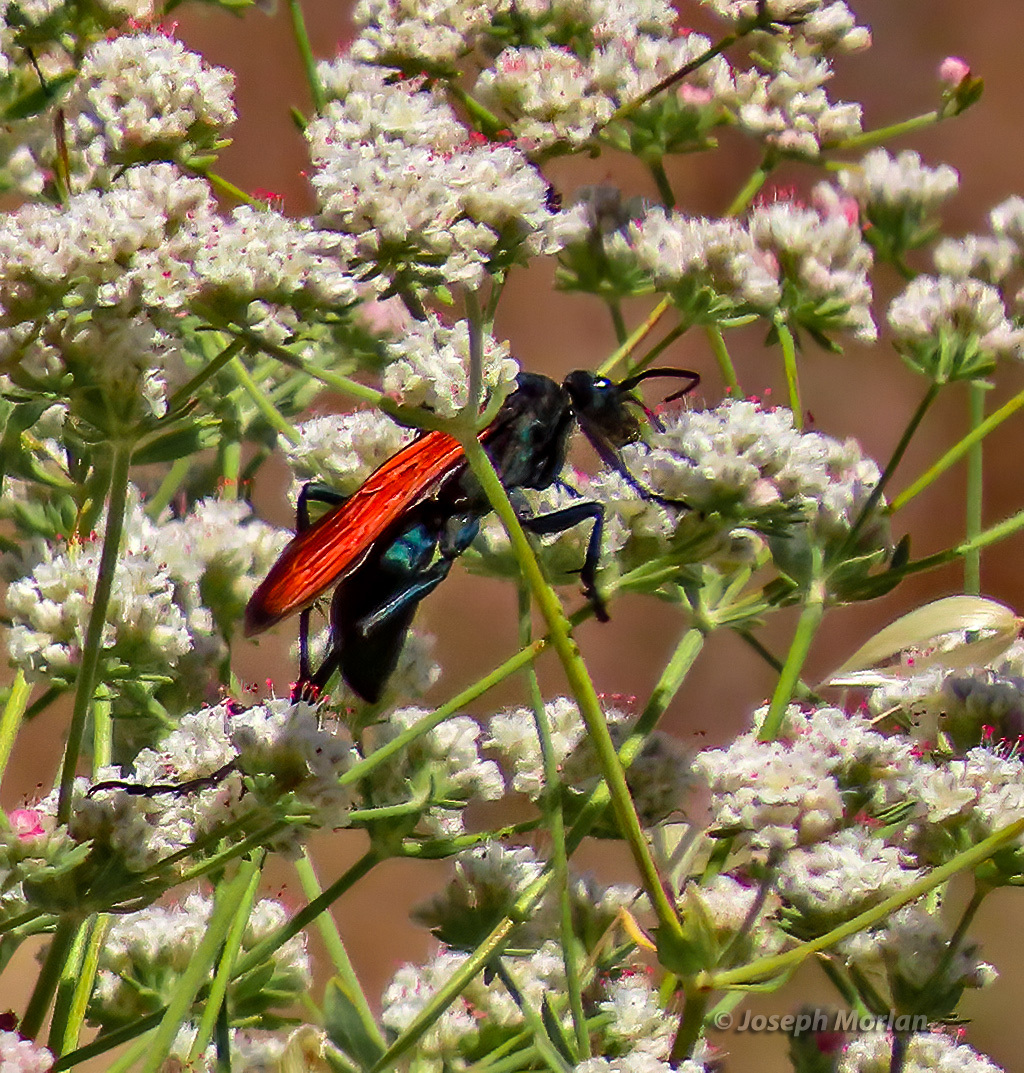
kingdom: Animalia
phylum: Arthropoda
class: Insecta
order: Hymenoptera
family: Pompilidae
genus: Pepsis
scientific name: Pepsis thisbe
